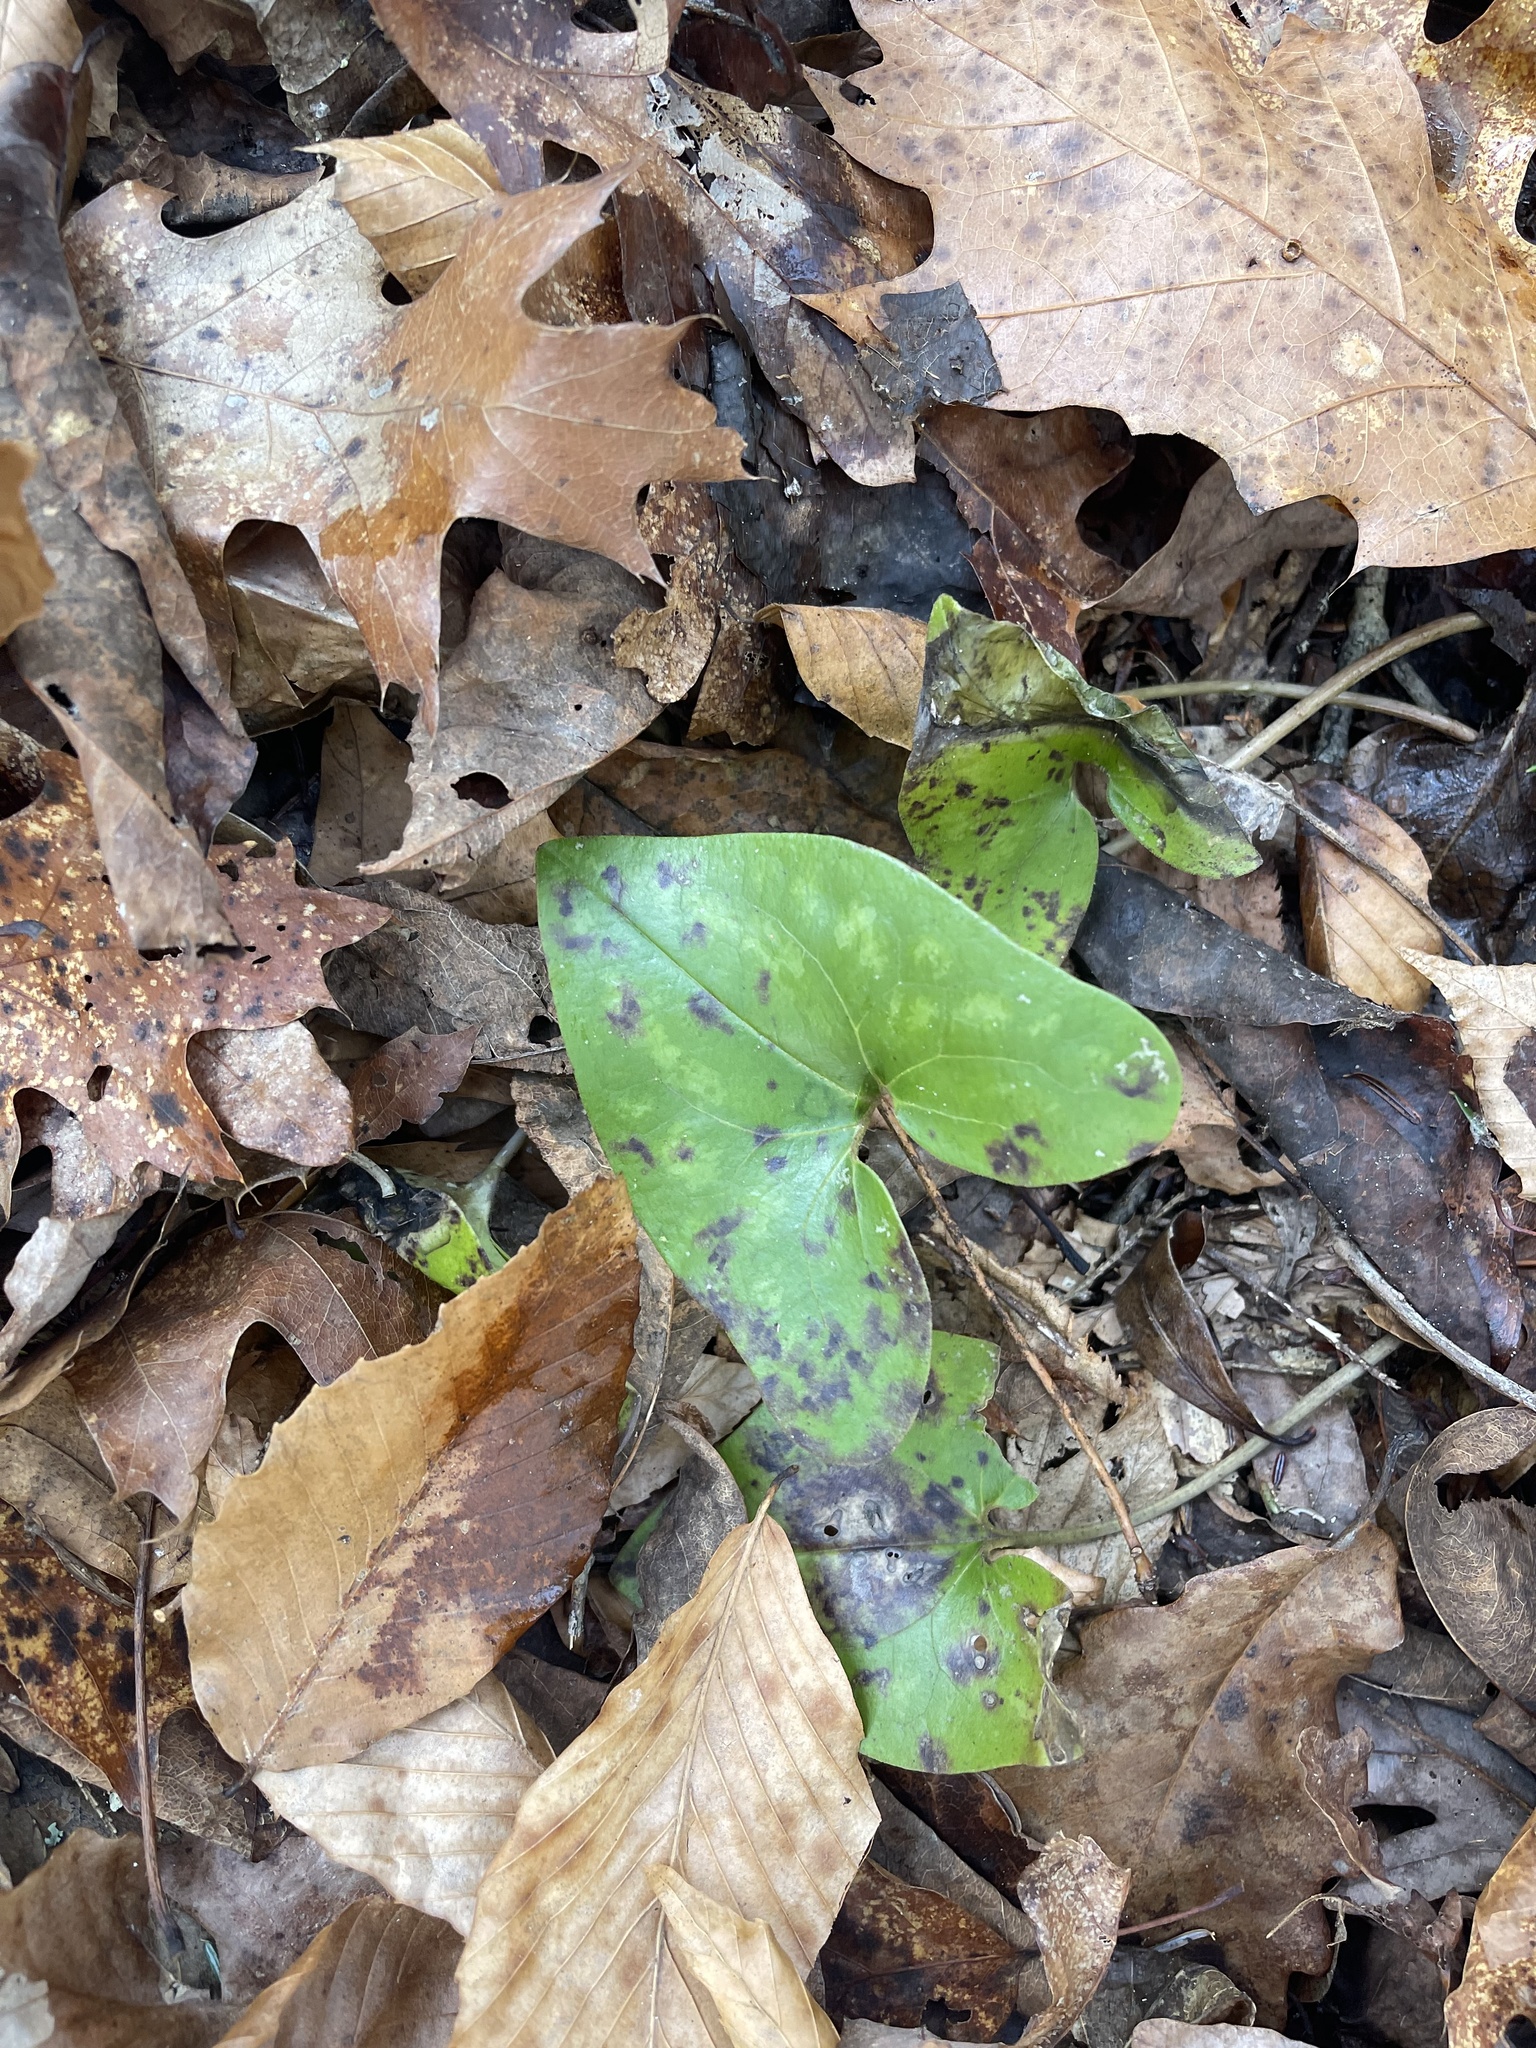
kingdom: Plantae
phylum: Tracheophyta
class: Magnoliopsida
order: Piperales
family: Aristolochiaceae
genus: Hexastylis
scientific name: Hexastylis arifolia
